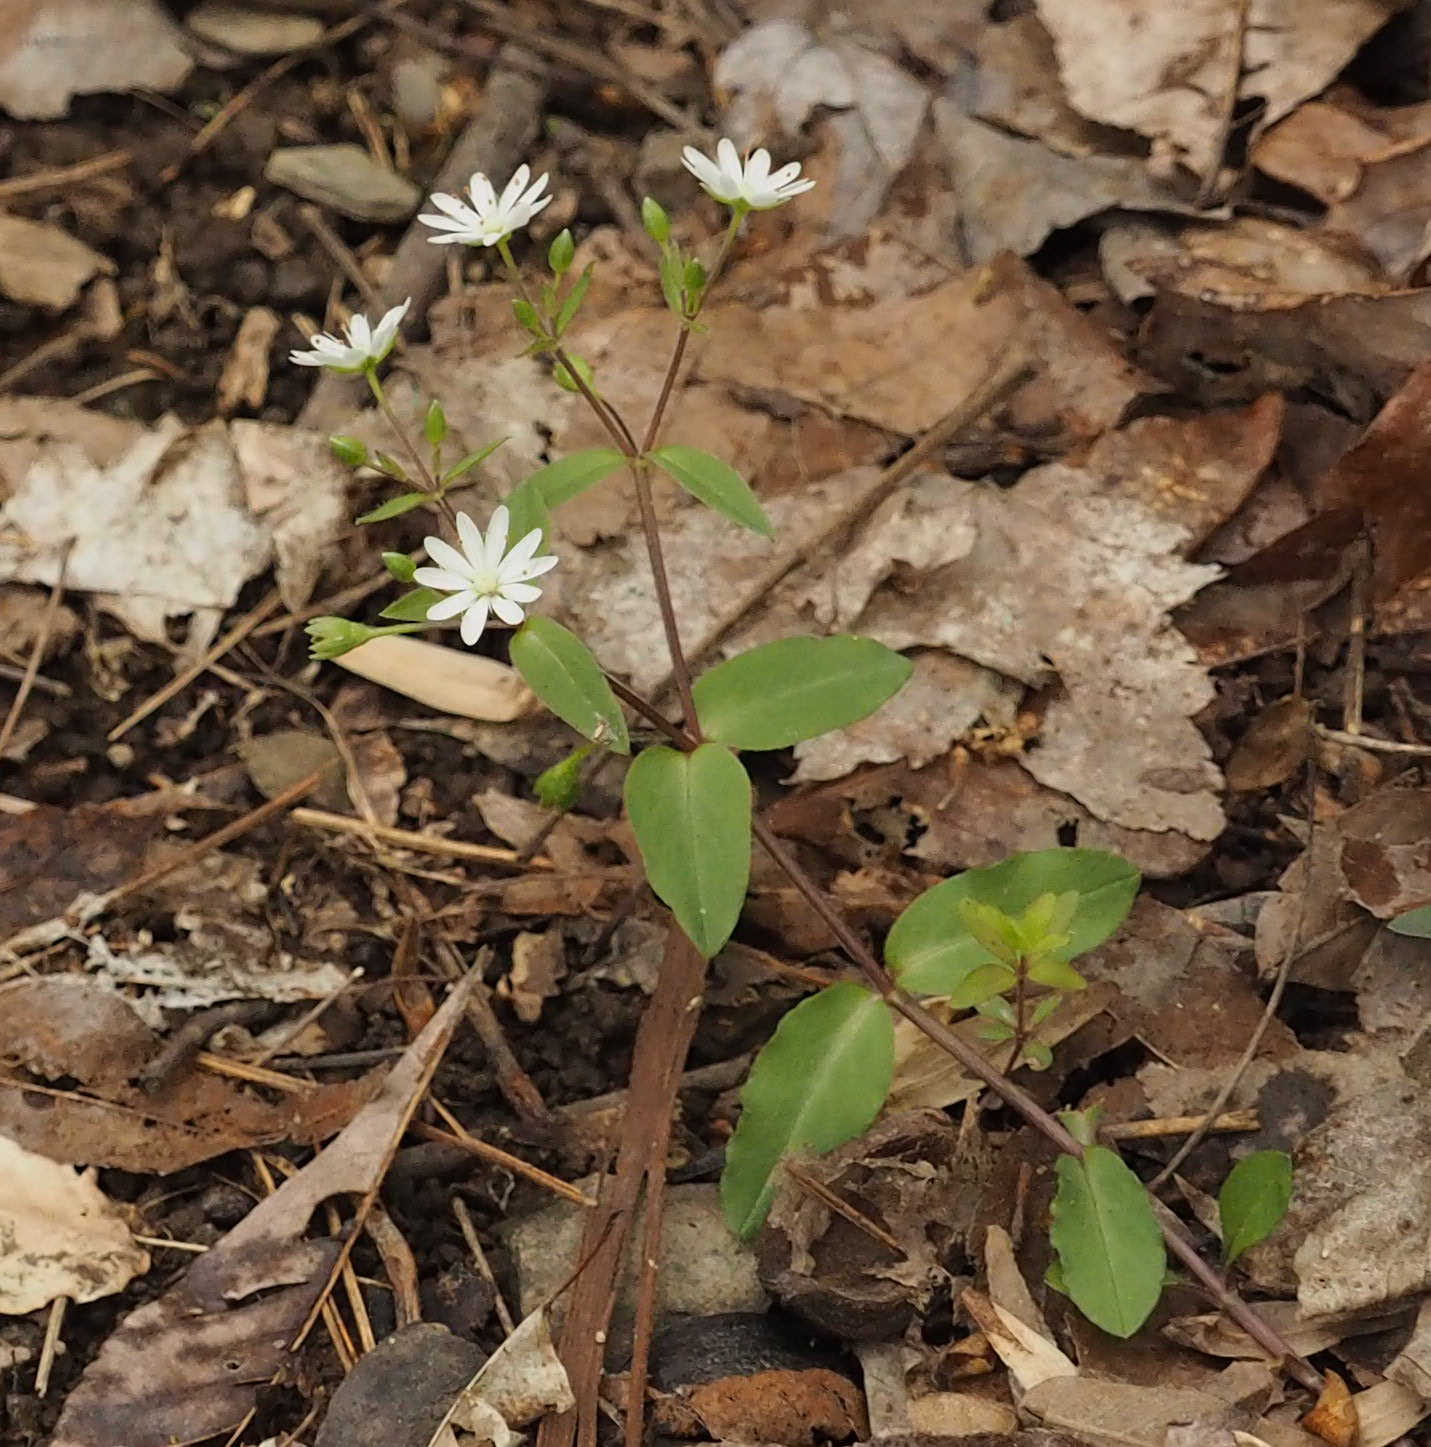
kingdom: Plantae
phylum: Tracheophyta
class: Magnoliopsida
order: Caryophyllales
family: Caryophyllaceae
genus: Stellaria
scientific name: Stellaria pubera
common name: Star chickweed
